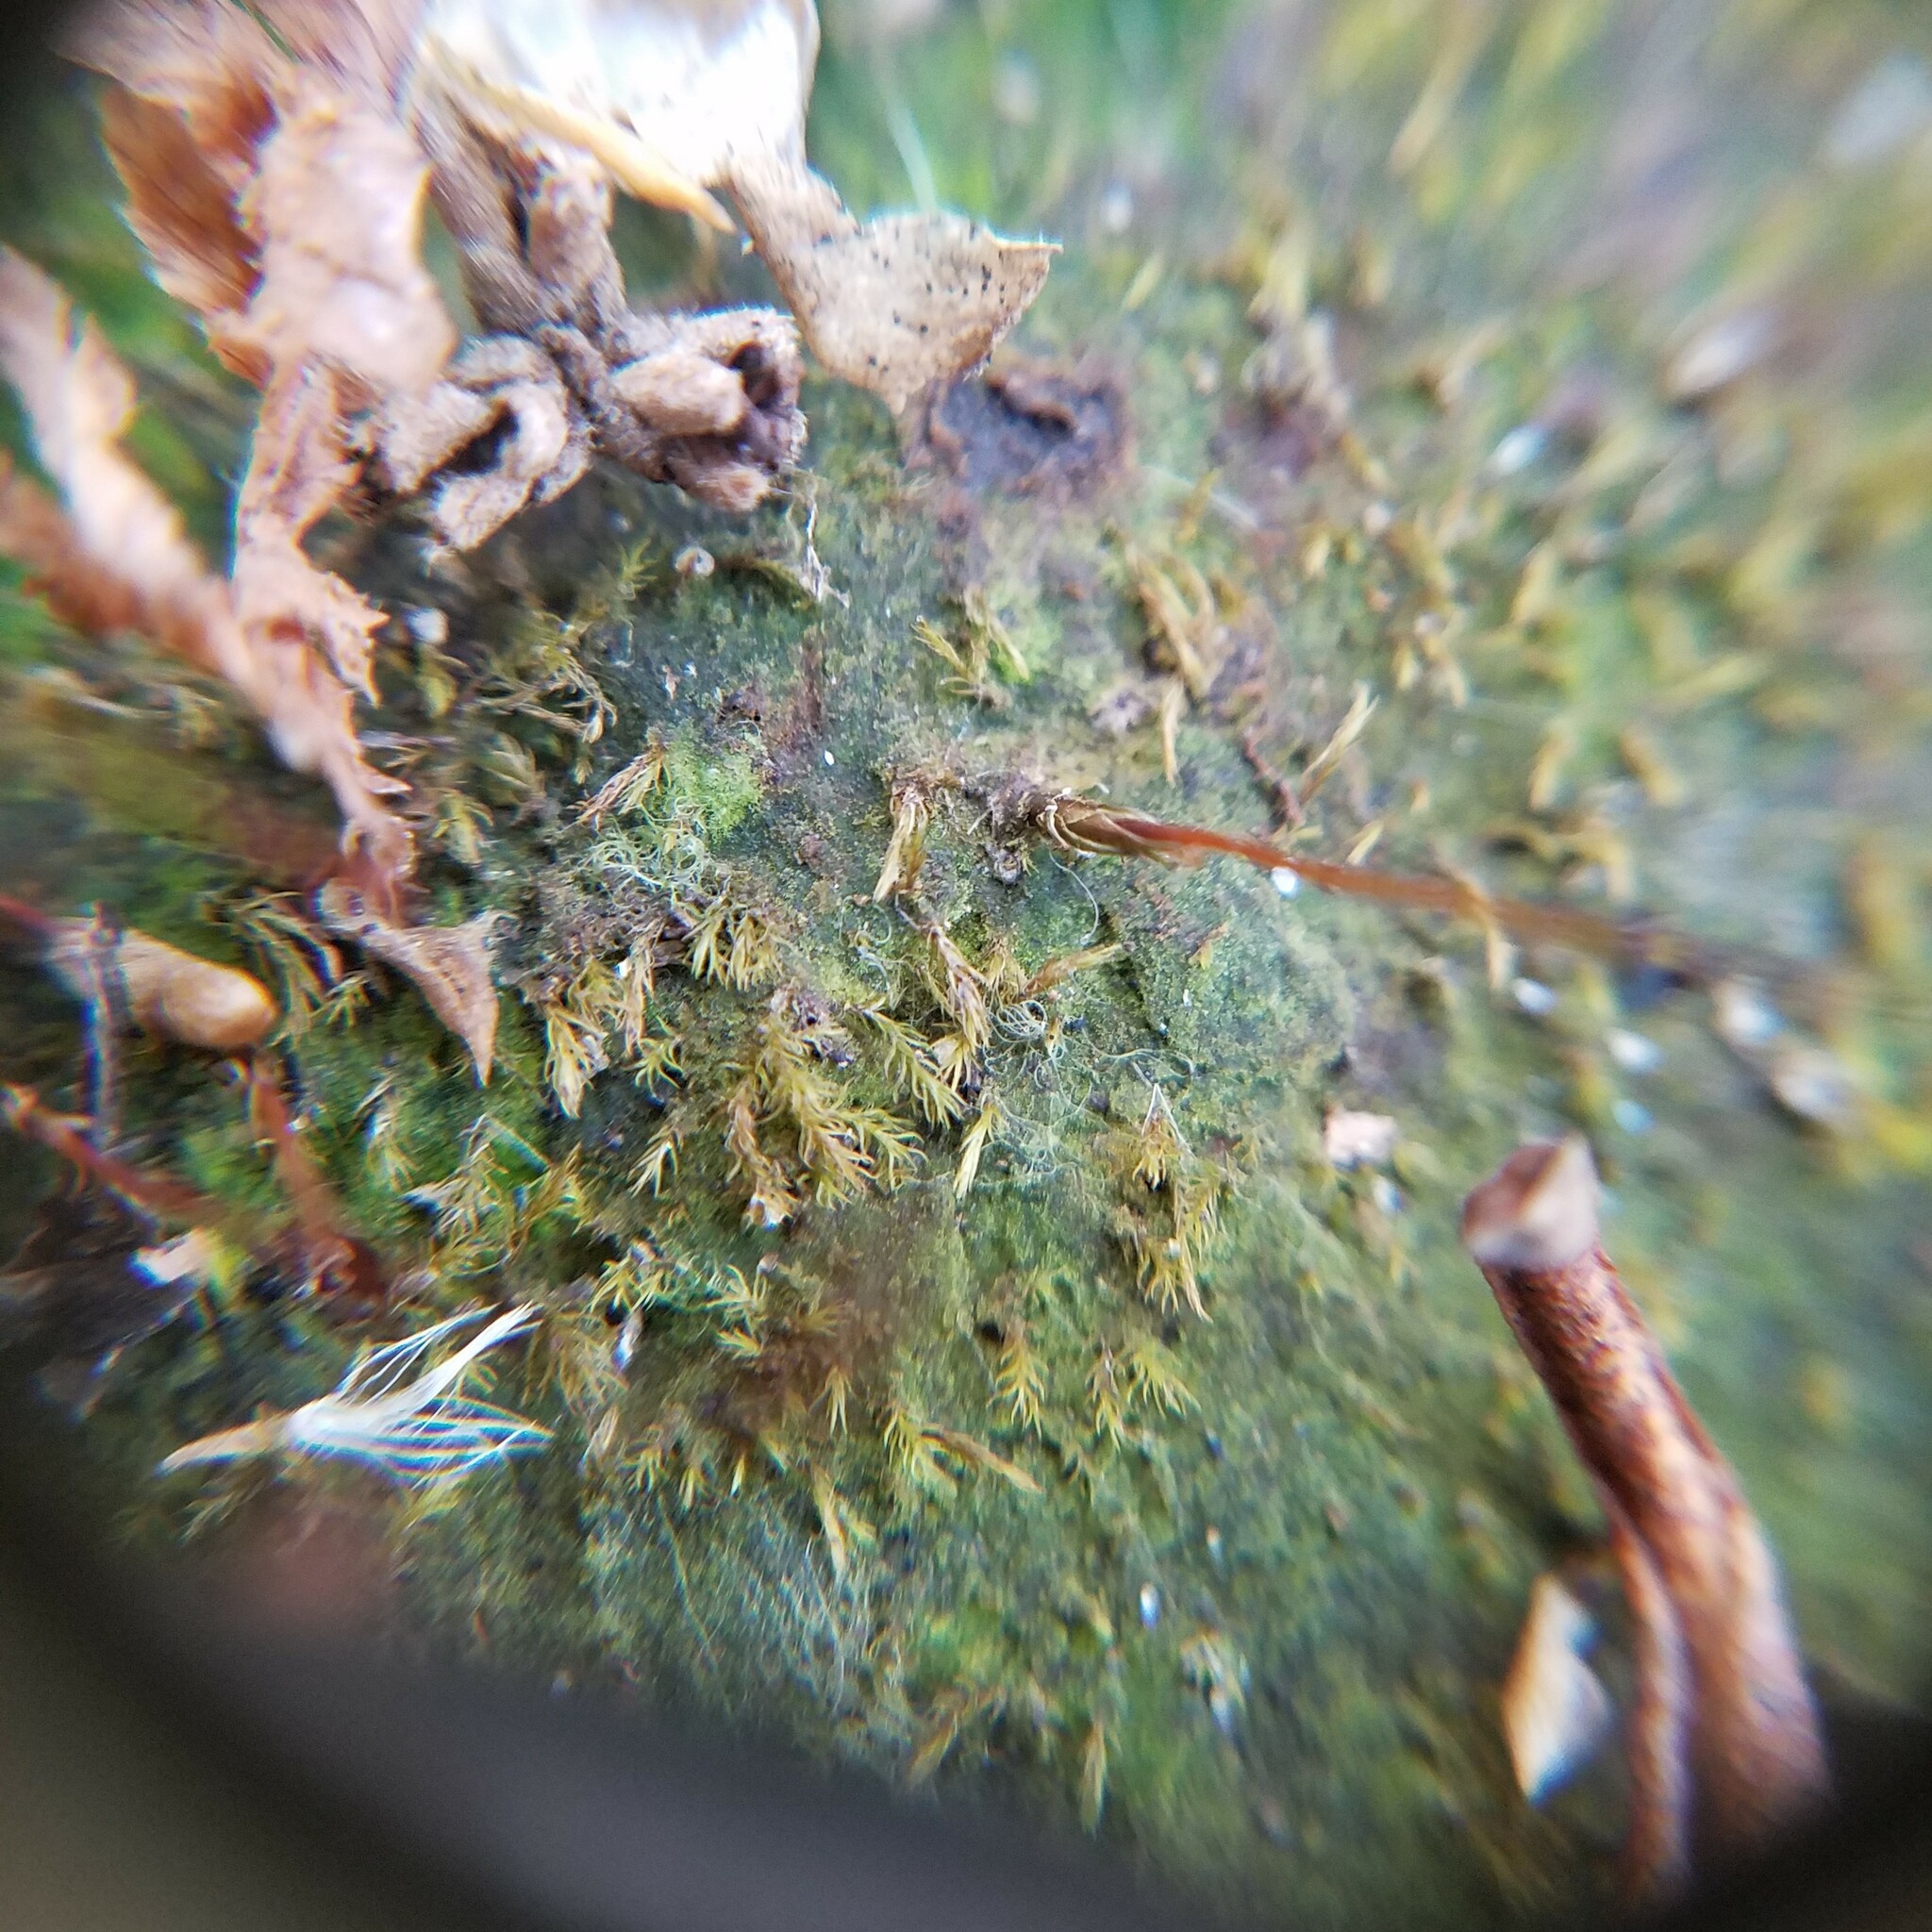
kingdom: Plantae
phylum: Bryophyta
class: Polytrichopsida
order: Polytrichales
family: Polytrichaceae
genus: Pogonatum
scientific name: Pogonatum pensilvanicum
